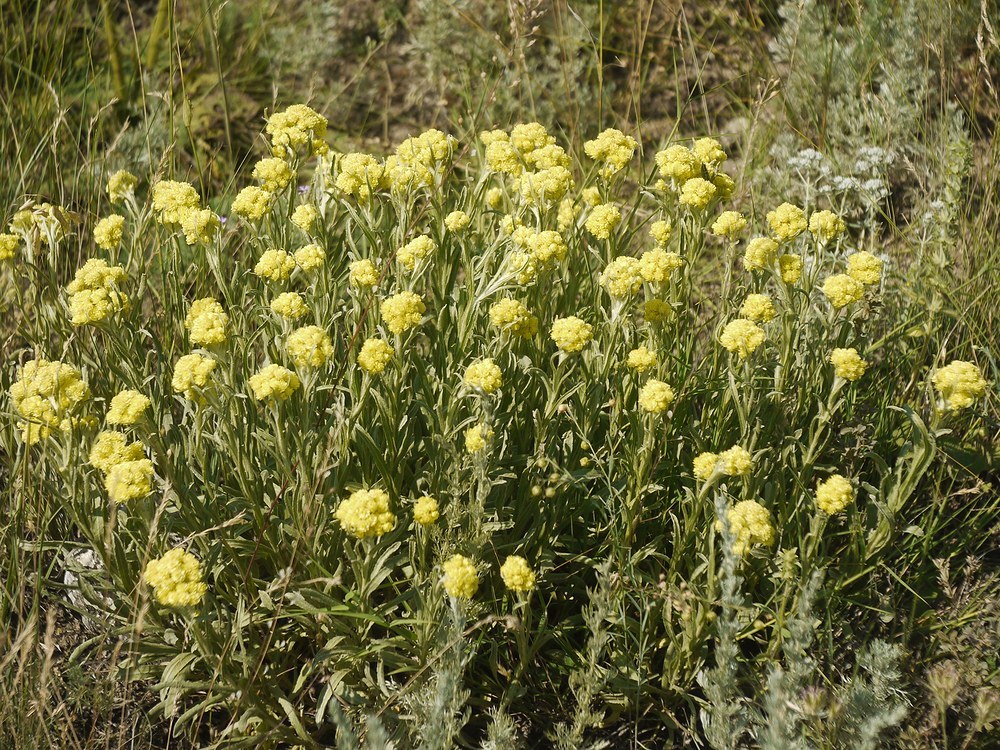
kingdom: Plantae
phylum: Tracheophyta
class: Magnoliopsida
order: Asterales
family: Asteraceae
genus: Helichrysum
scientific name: Helichrysum arenarium
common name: Strawflower
